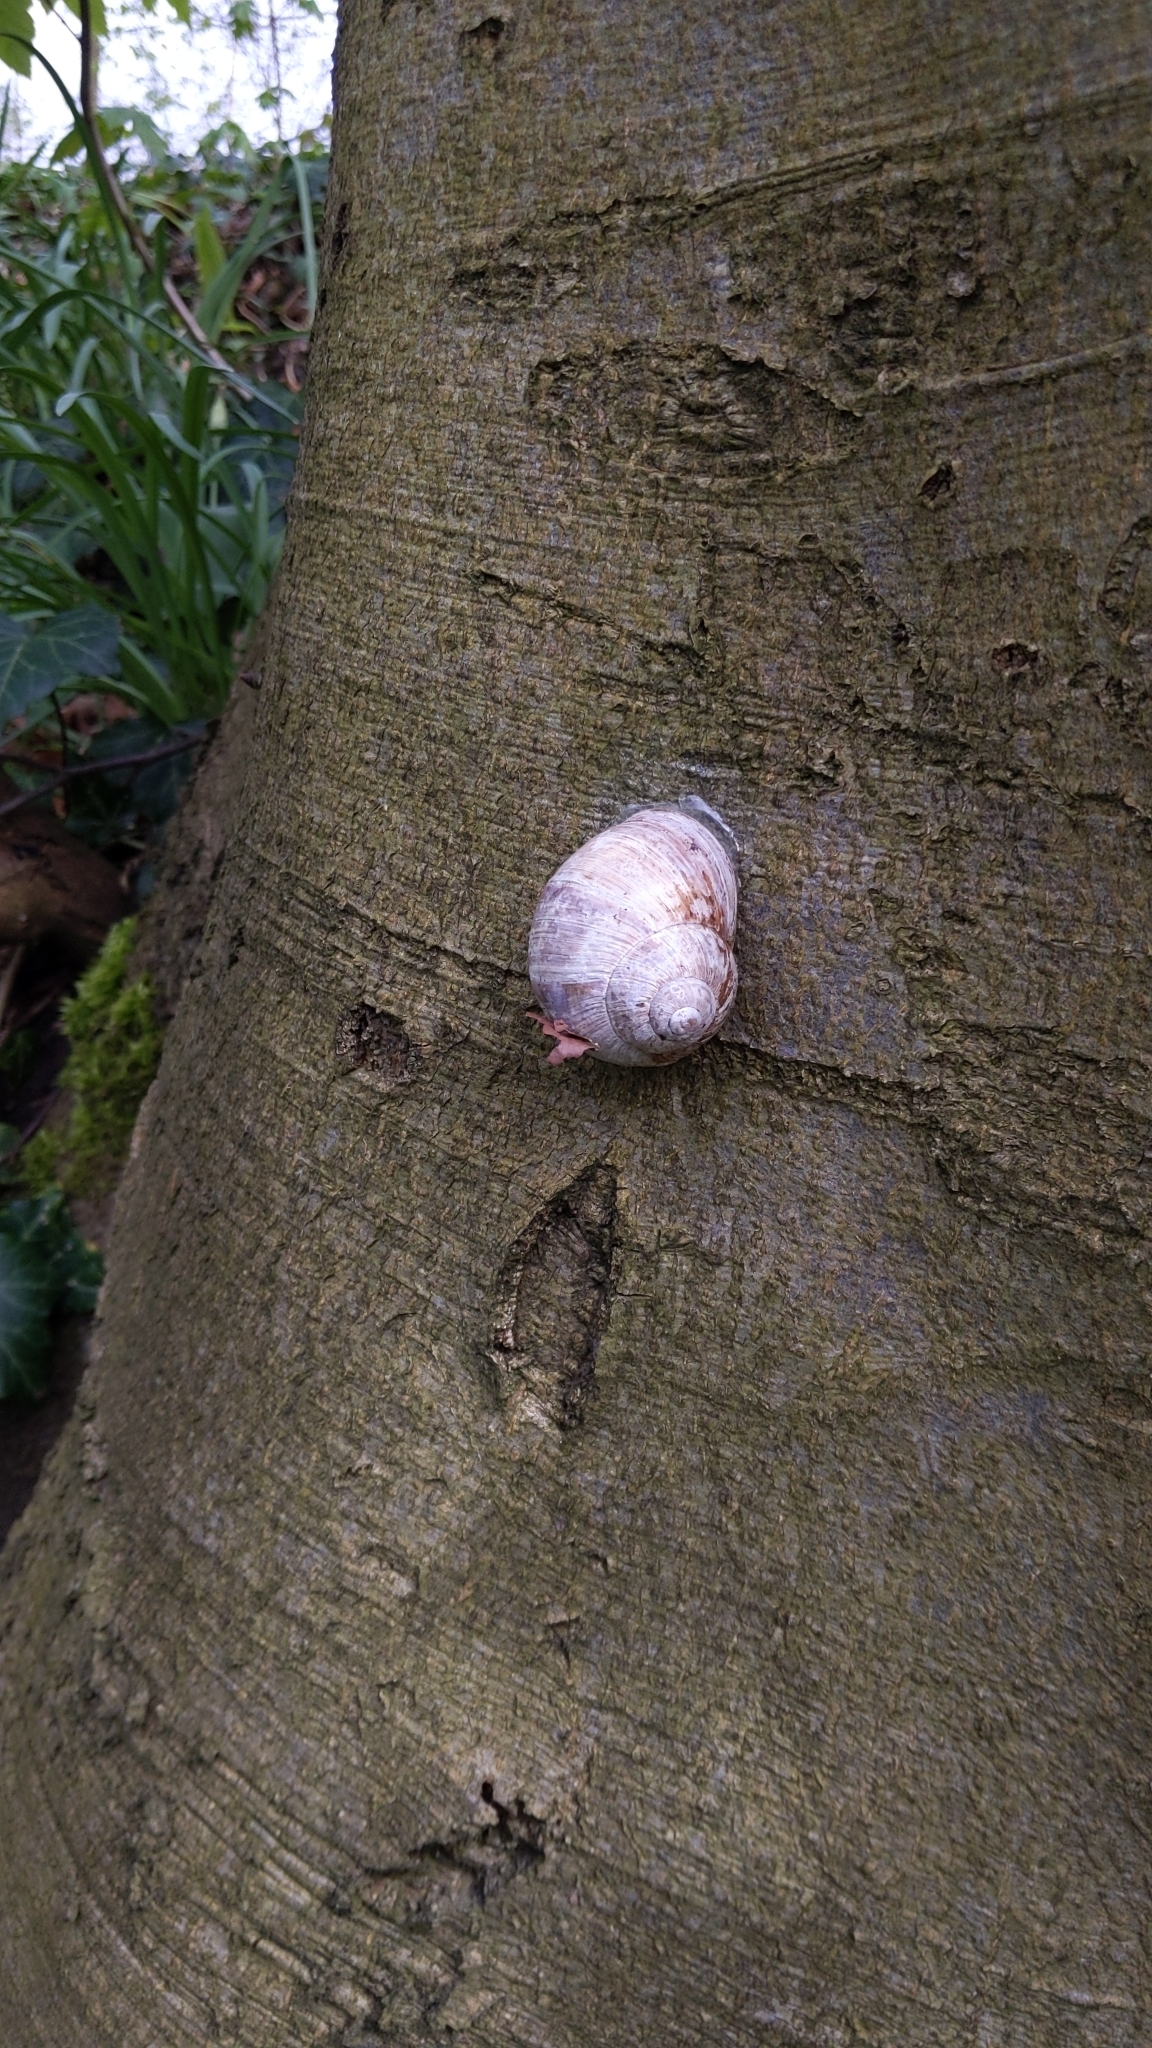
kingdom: Animalia
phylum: Mollusca
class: Gastropoda
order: Stylommatophora
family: Helicidae
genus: Helix
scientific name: Helix pomatia
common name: Roman snail
